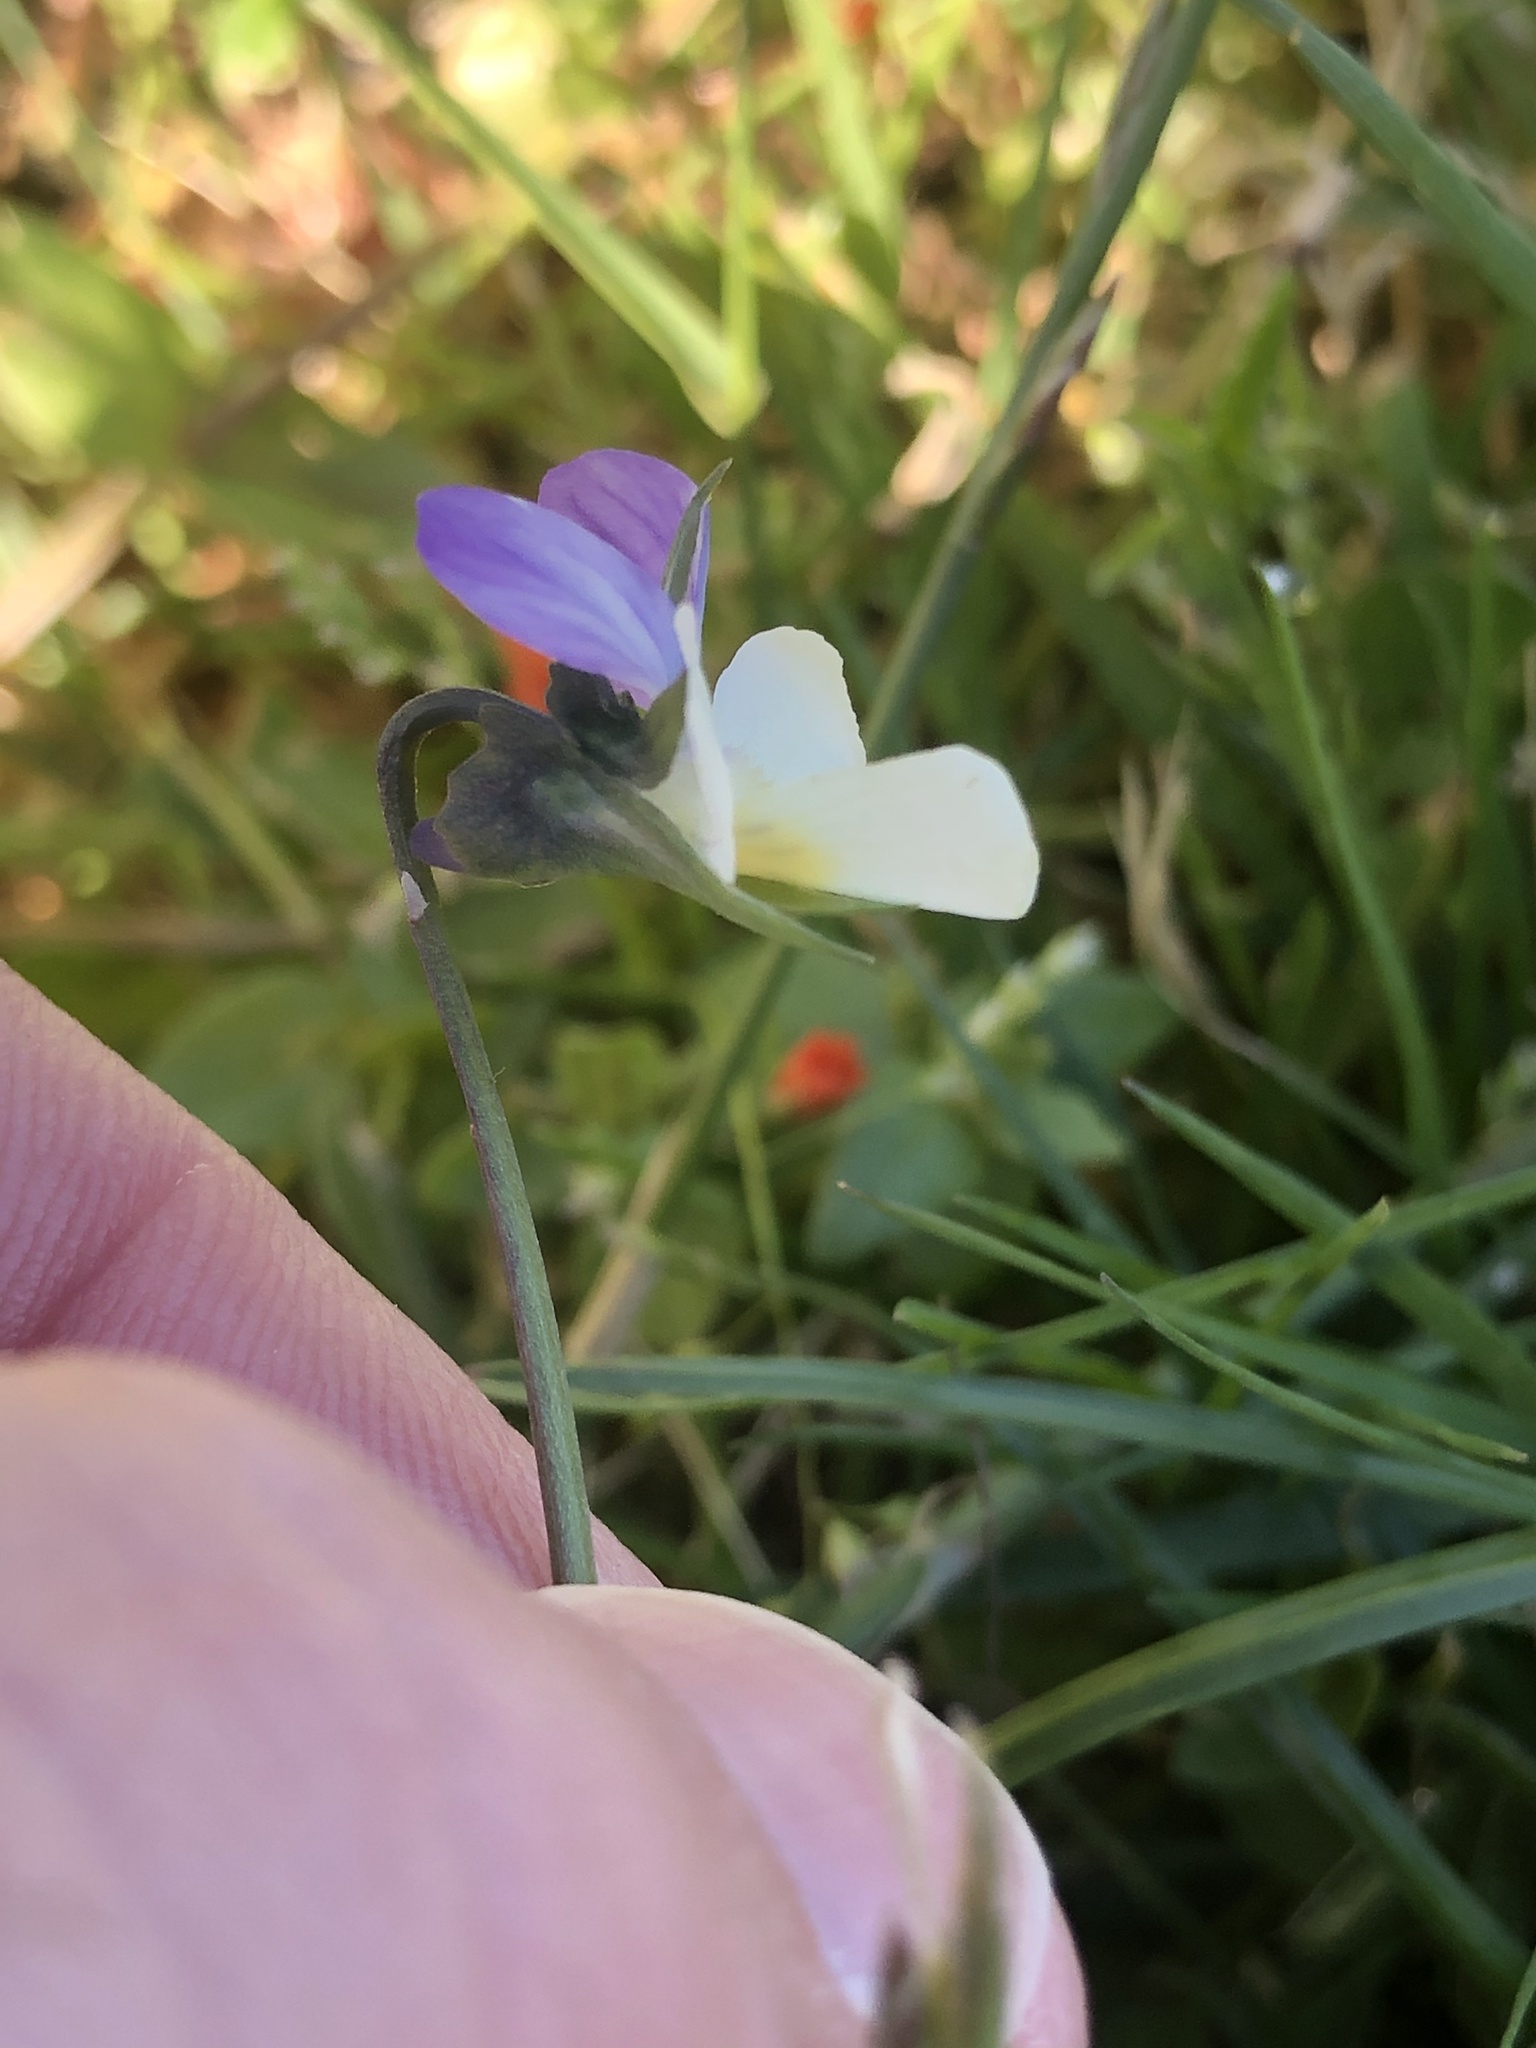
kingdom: Plantae
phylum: Tracheophyta
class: Magnoliopsida
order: Malpighiales
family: Violaceae
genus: Viola
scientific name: Viola wittrockiana
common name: Garden pansy
